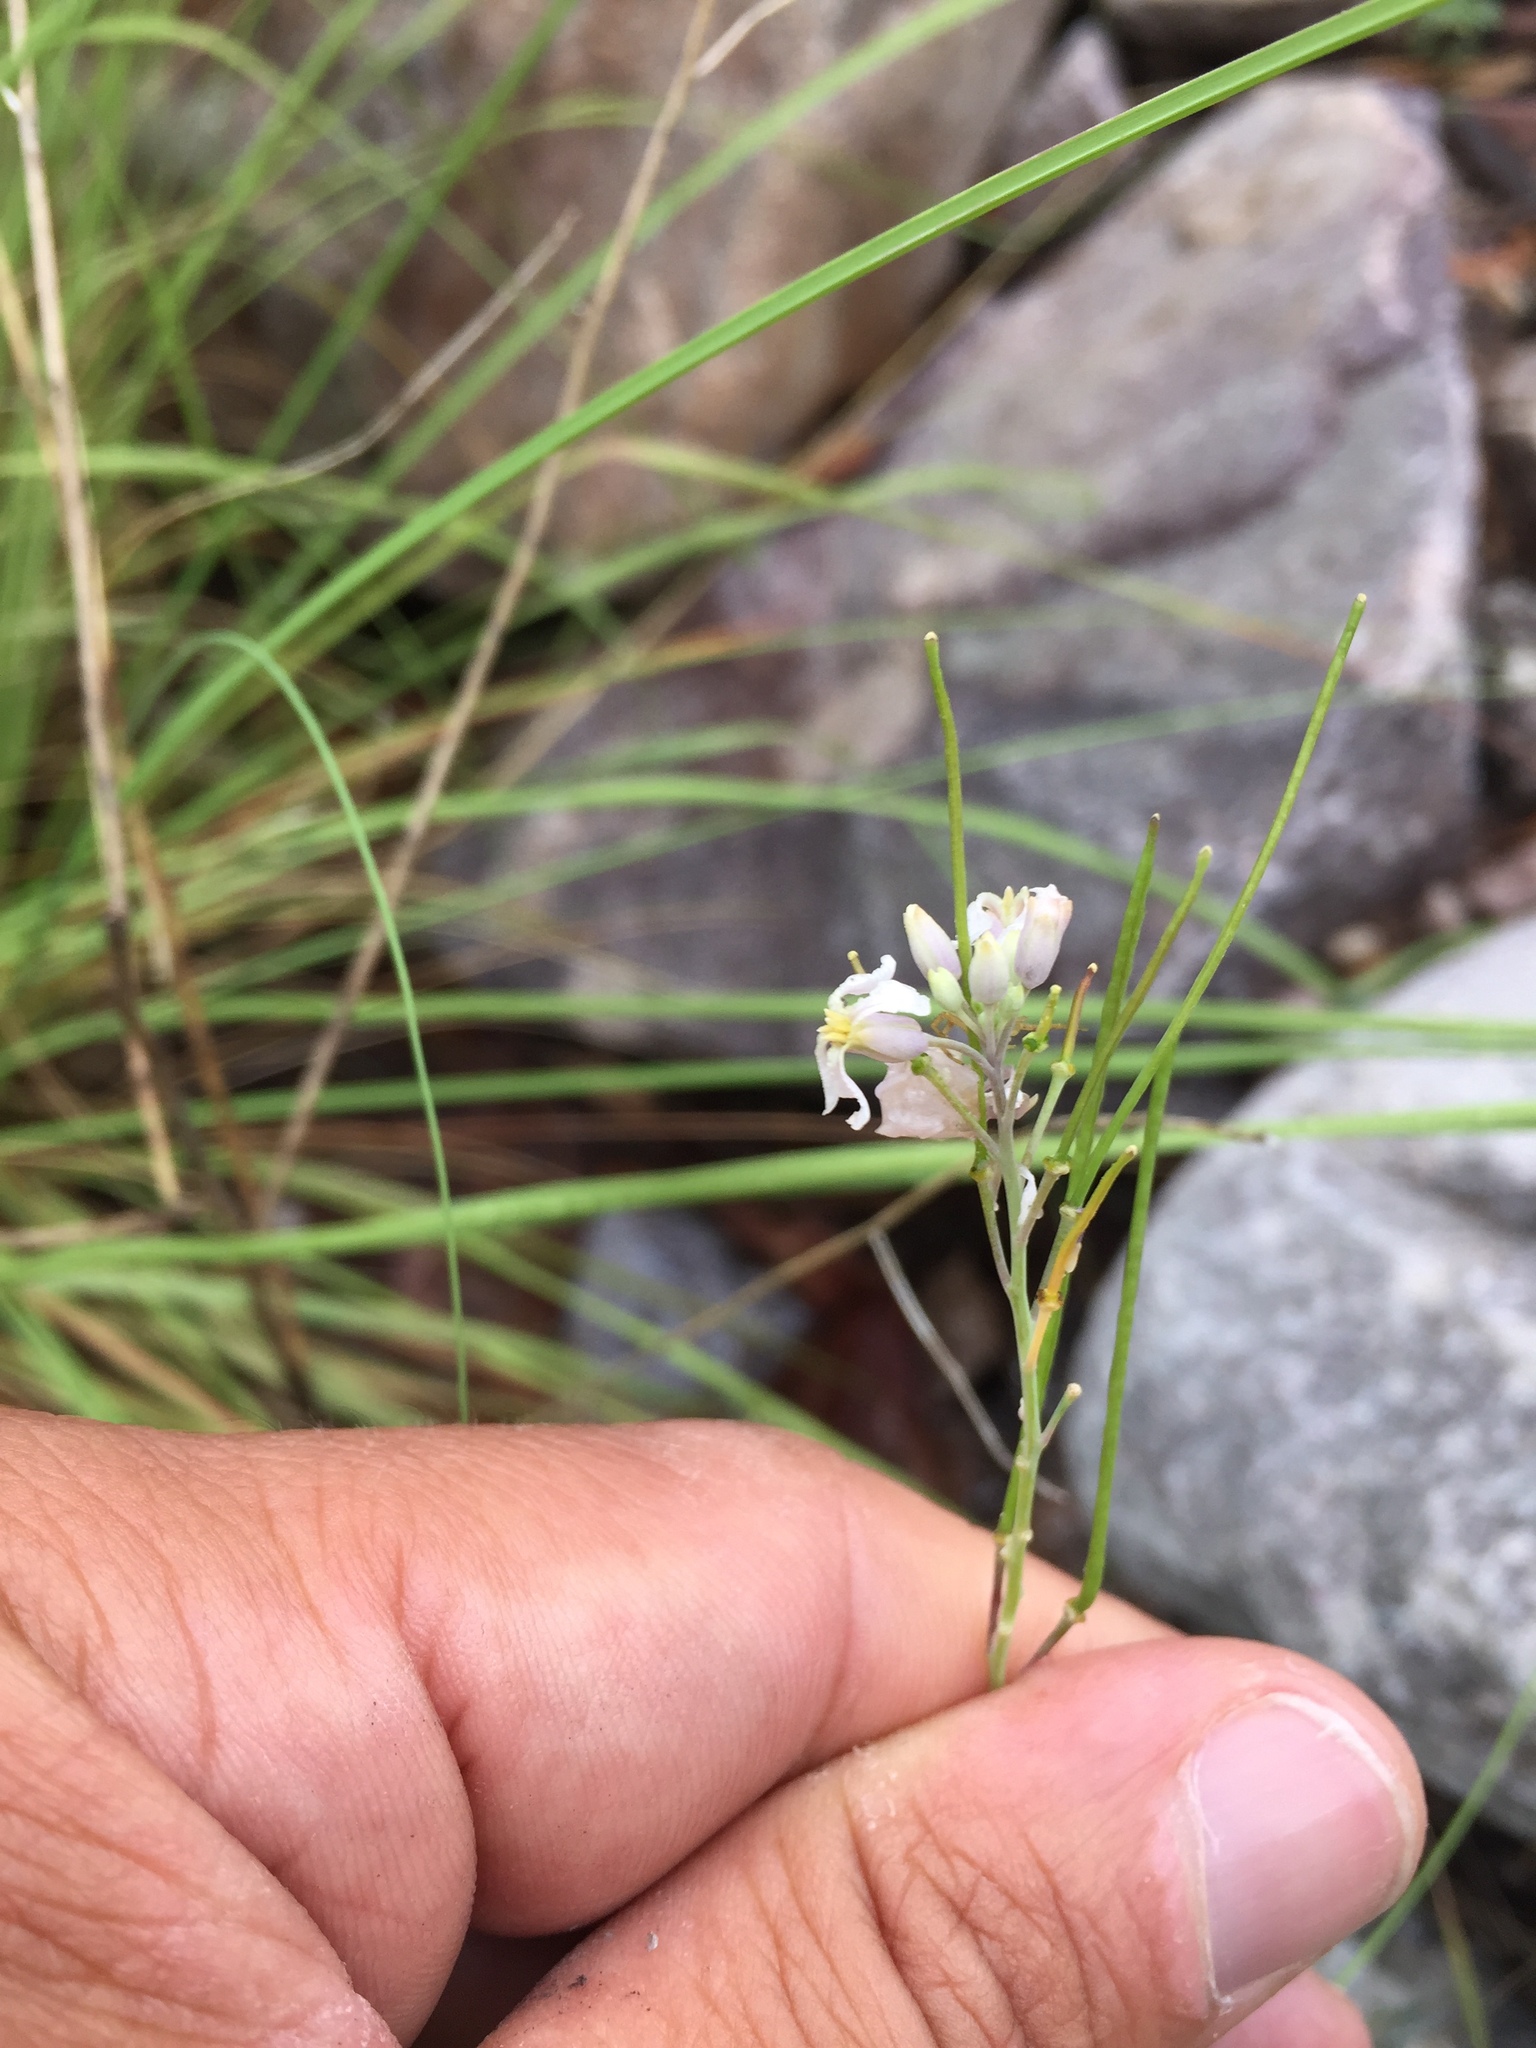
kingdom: Plantae
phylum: Tracheophyta
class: Magnoliopsida
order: Brassicales
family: Brassicaceae
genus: Hesperidanthus
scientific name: Hesperidanthus linearifolius
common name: Slim-leaf plains mustard
